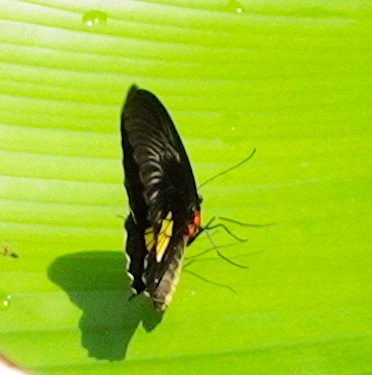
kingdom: Animalia
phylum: Arthropoda
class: Insecta
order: Lepidoptera
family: Papilionidae
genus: Troides
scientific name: Troides criton
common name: Criton birdwing
